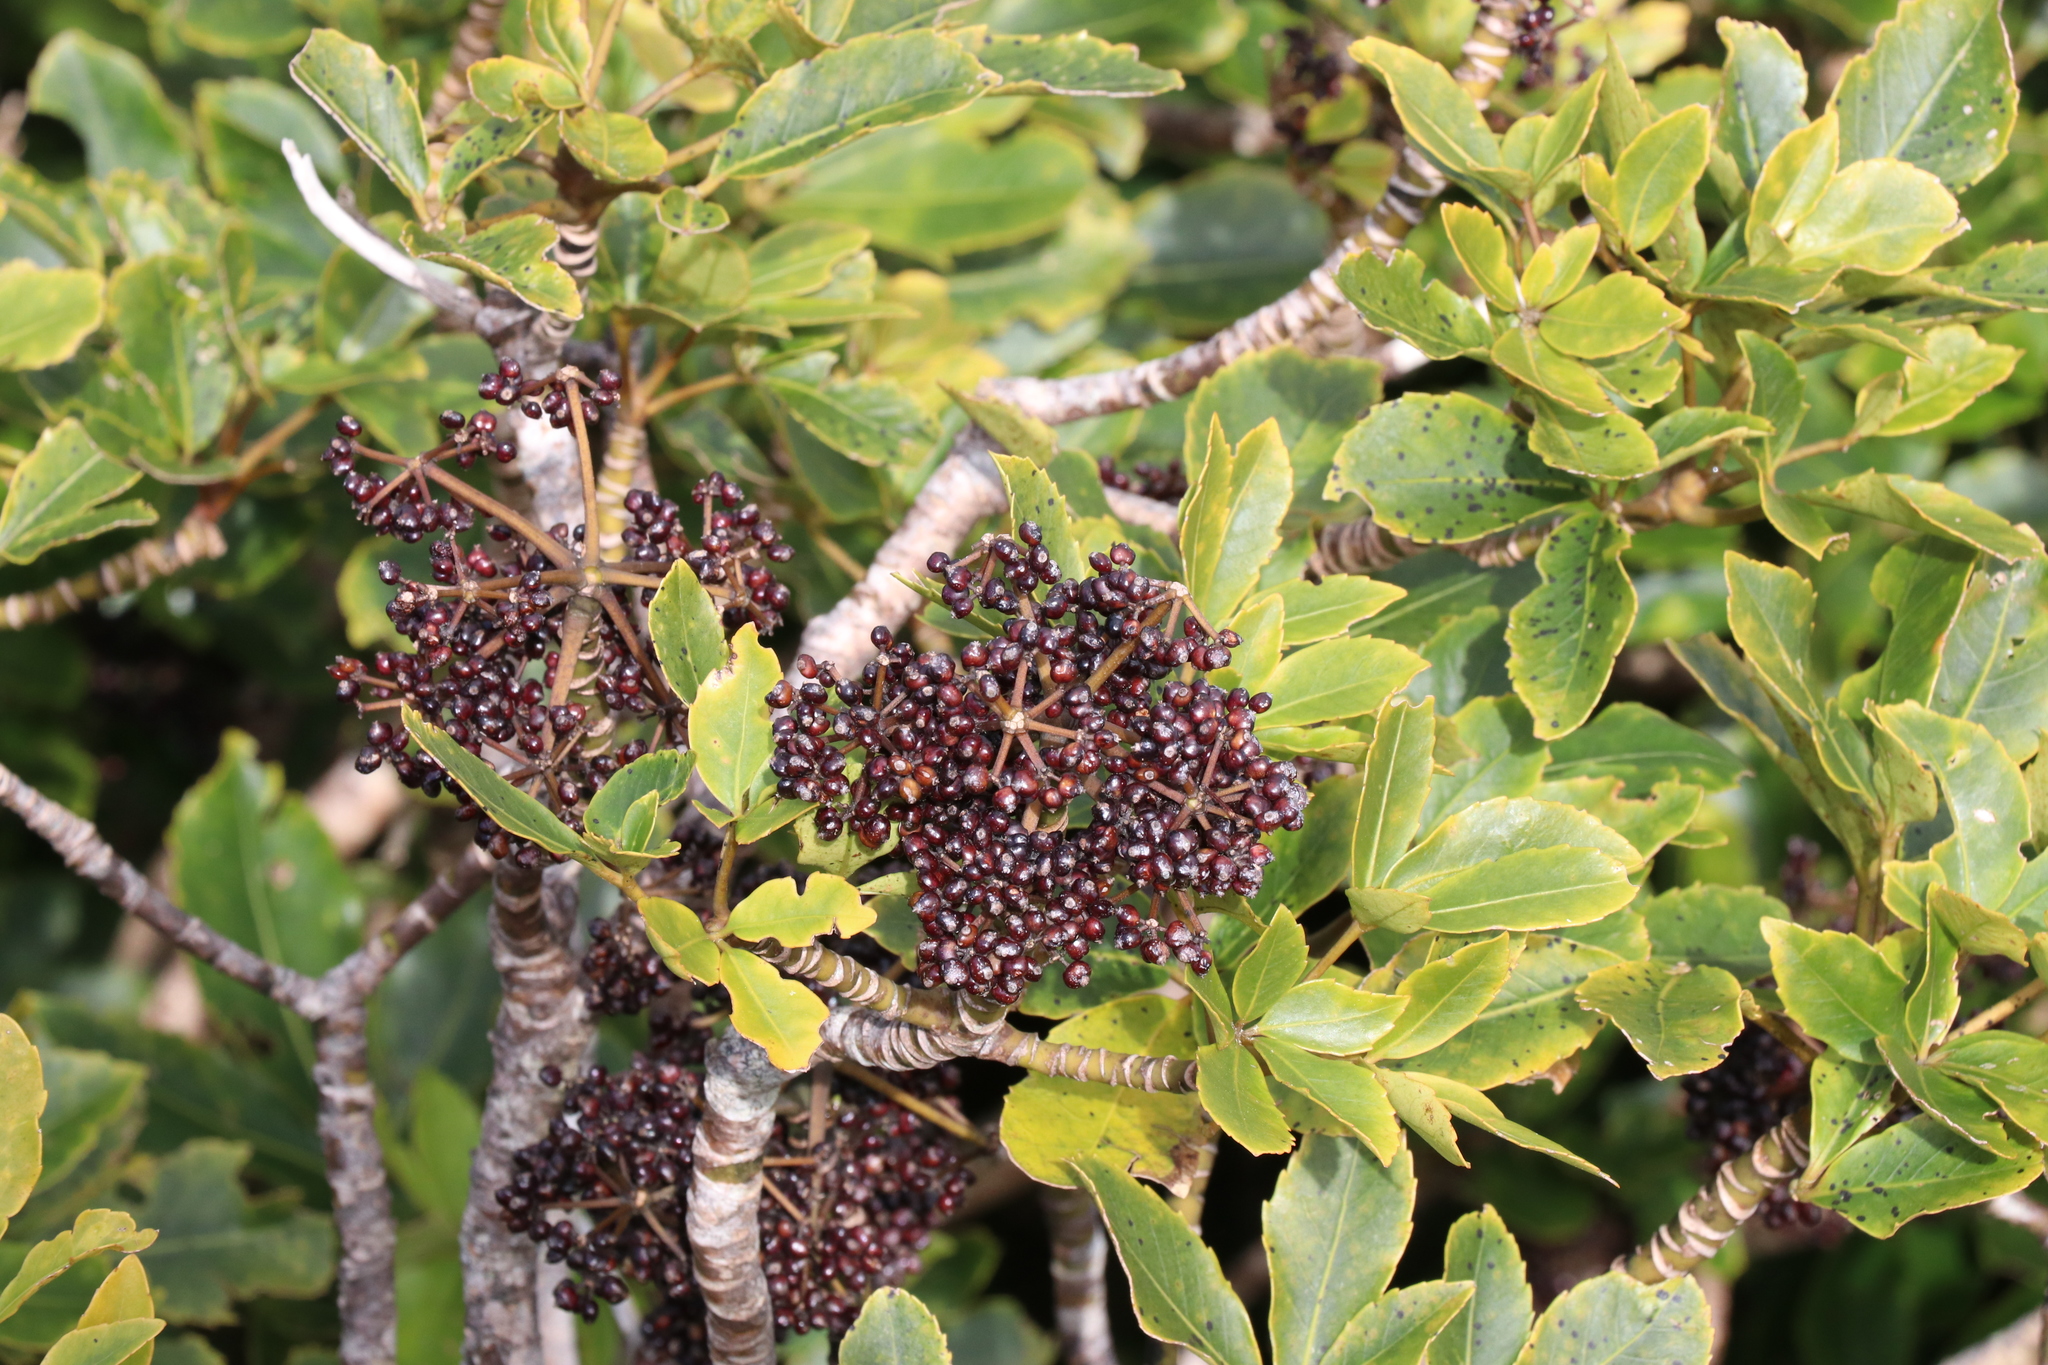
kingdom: Plantae
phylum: Tracheophyta
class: Magnoliopsida
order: Apiales
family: Araliaceae
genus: Neopanax
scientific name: Neopanax arboreus
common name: Five-fingers
